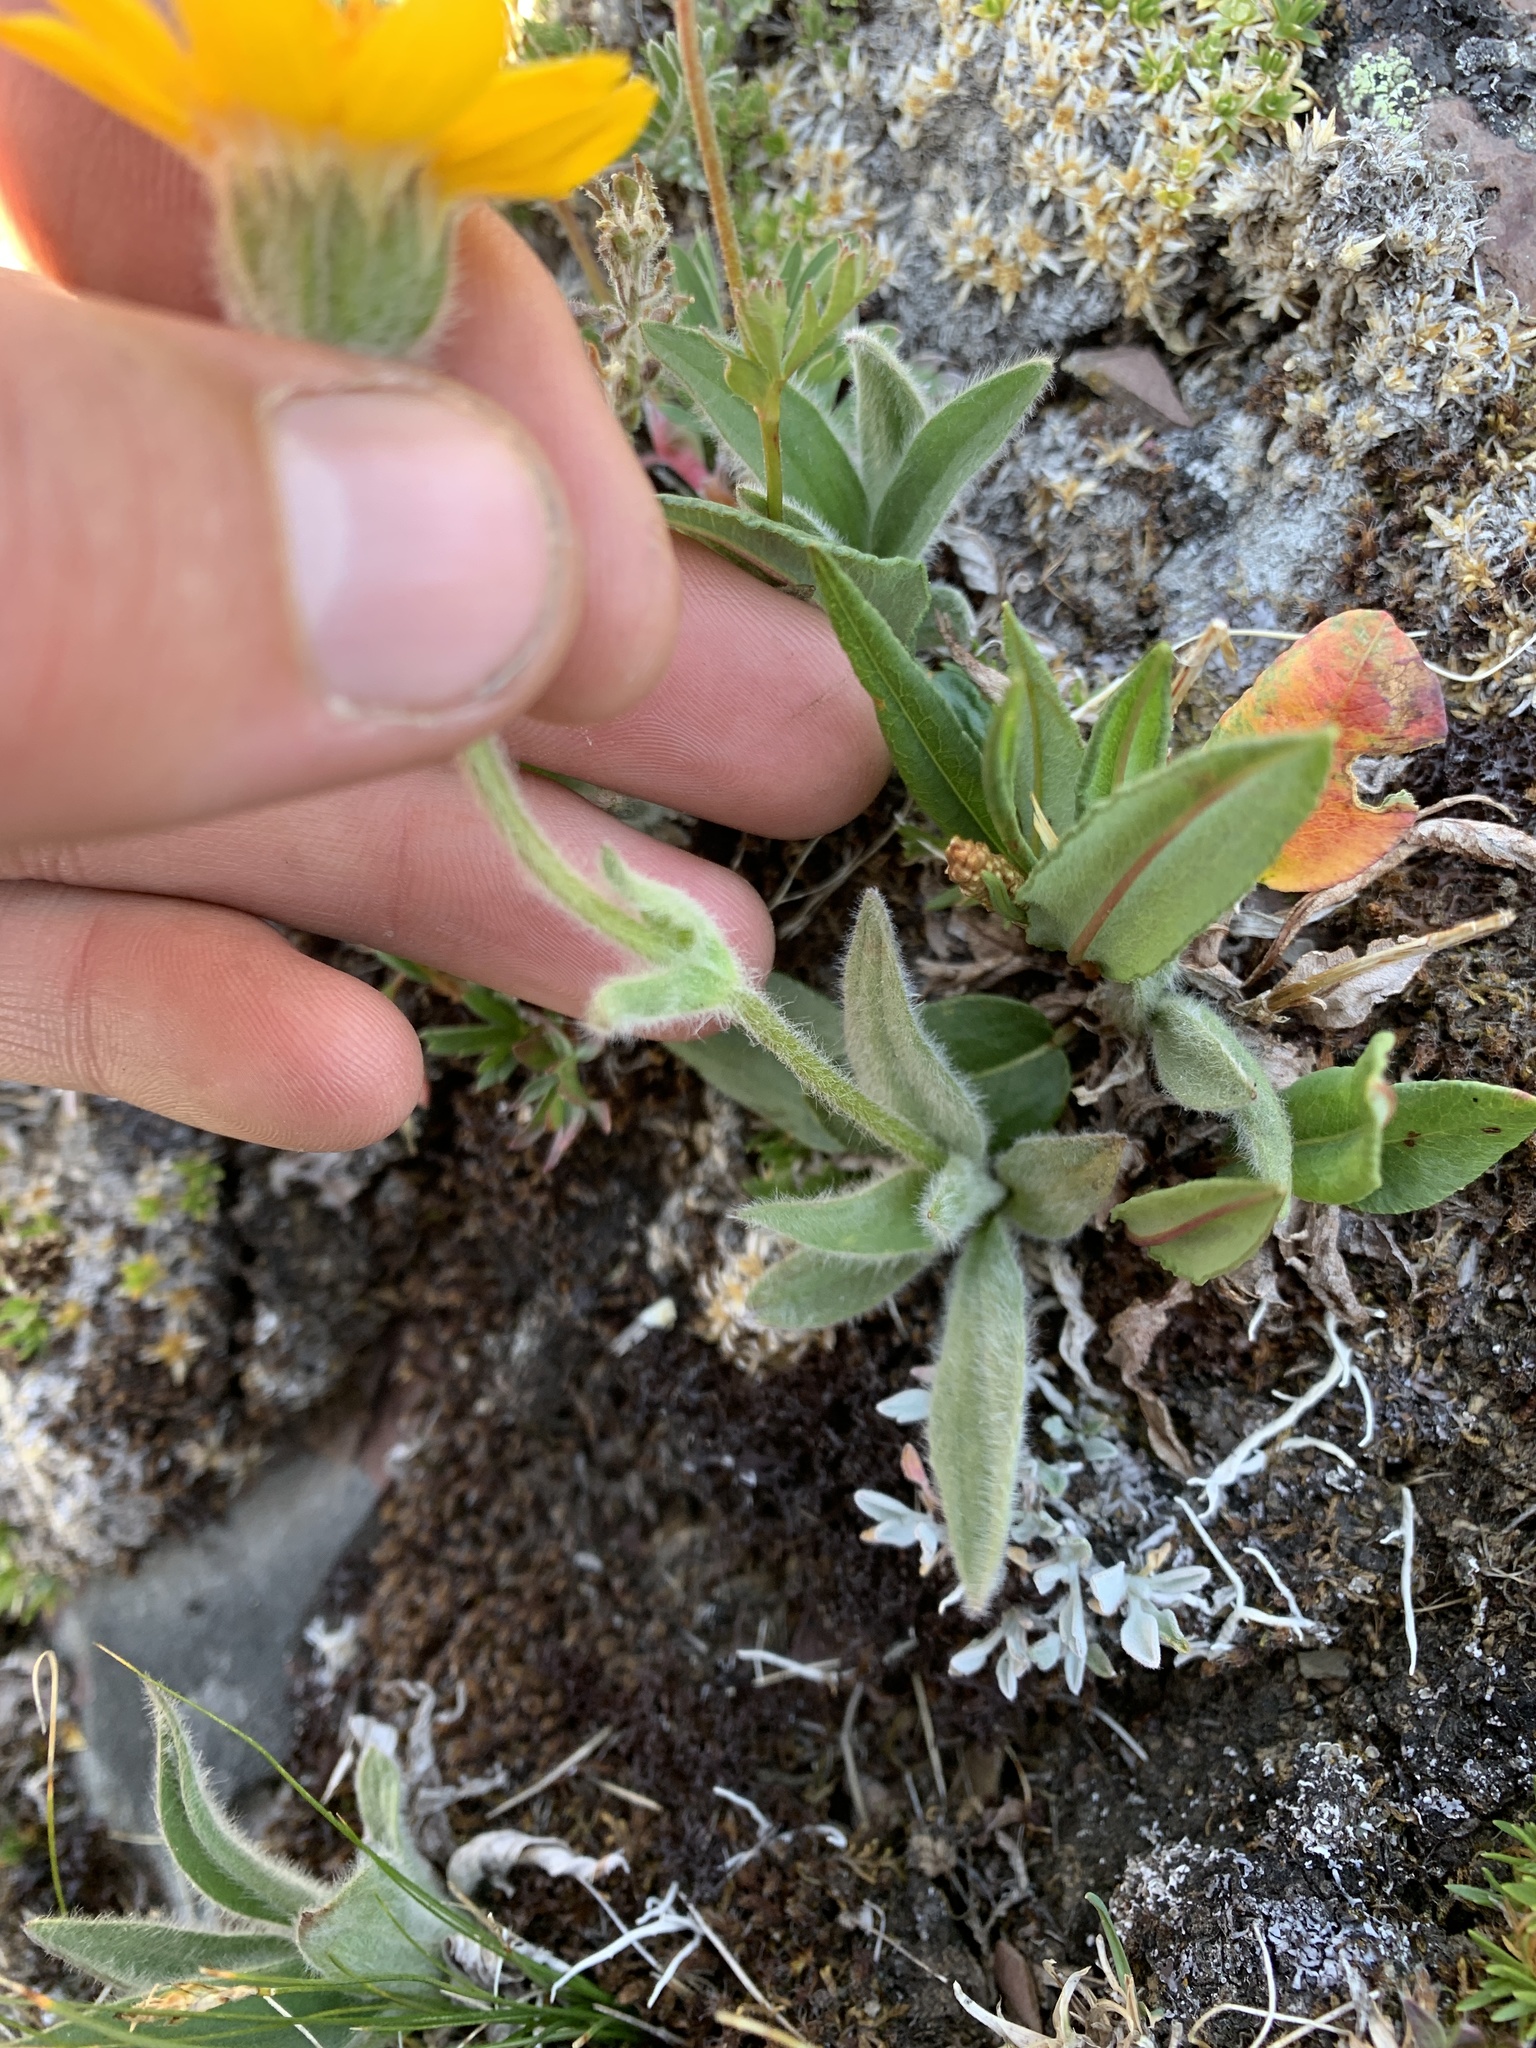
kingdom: Plantae
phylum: Tracheophyta
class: Magnoliopsida
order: Asterales
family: Asteraceae
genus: Arnica
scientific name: Arnica angustifolia
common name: Arctic arnica
